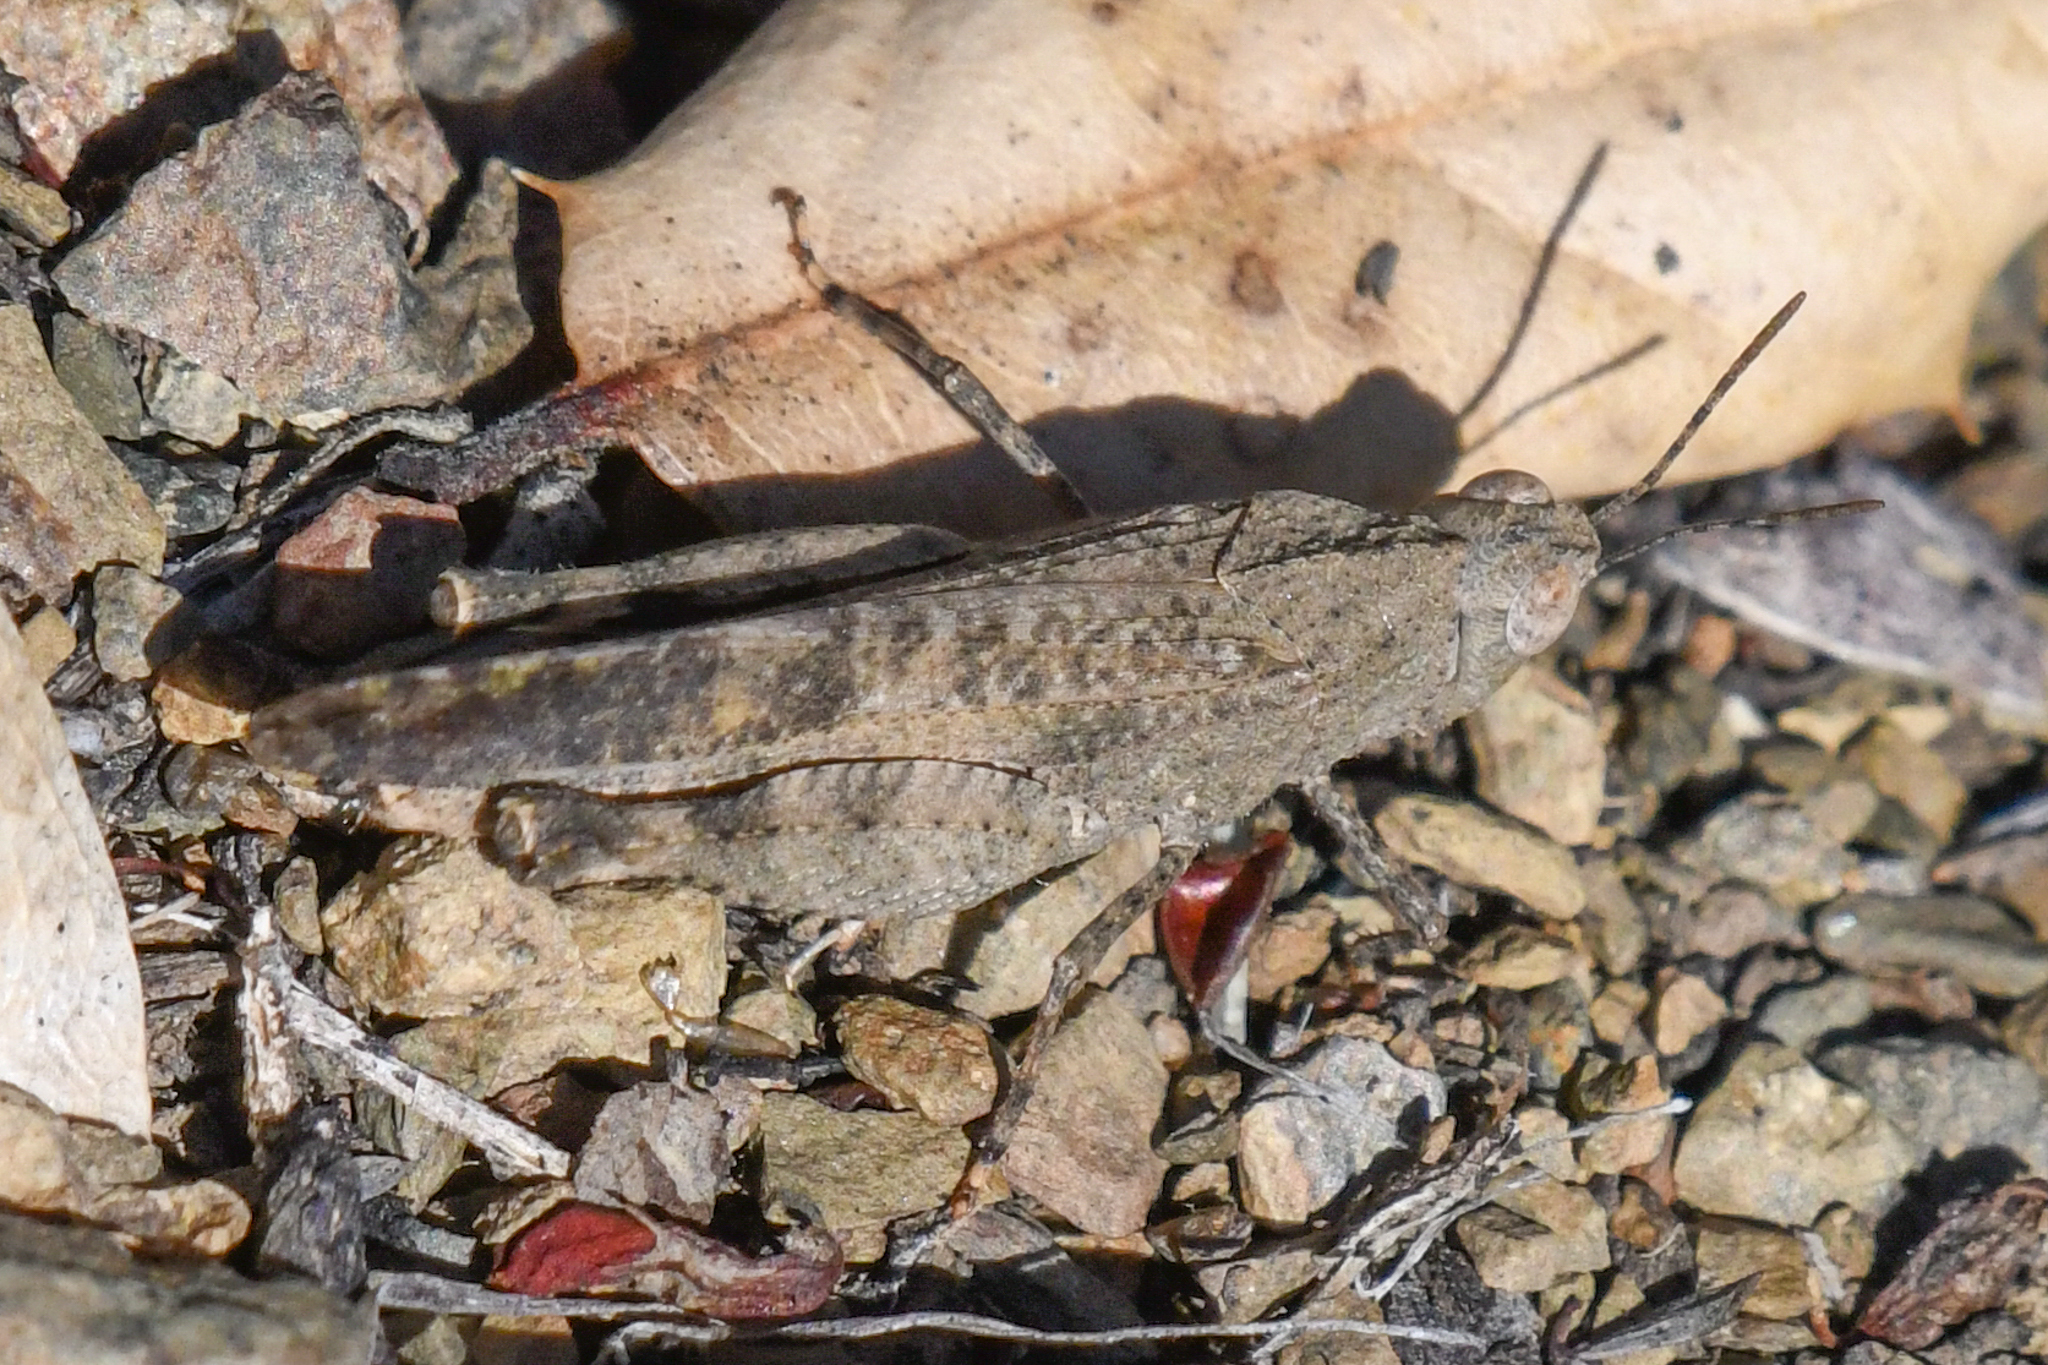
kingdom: Animalia
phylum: Arthropoda
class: Insecta
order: Orthoptera
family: Acrididae
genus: Lactista
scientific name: Lactista gibbosus
